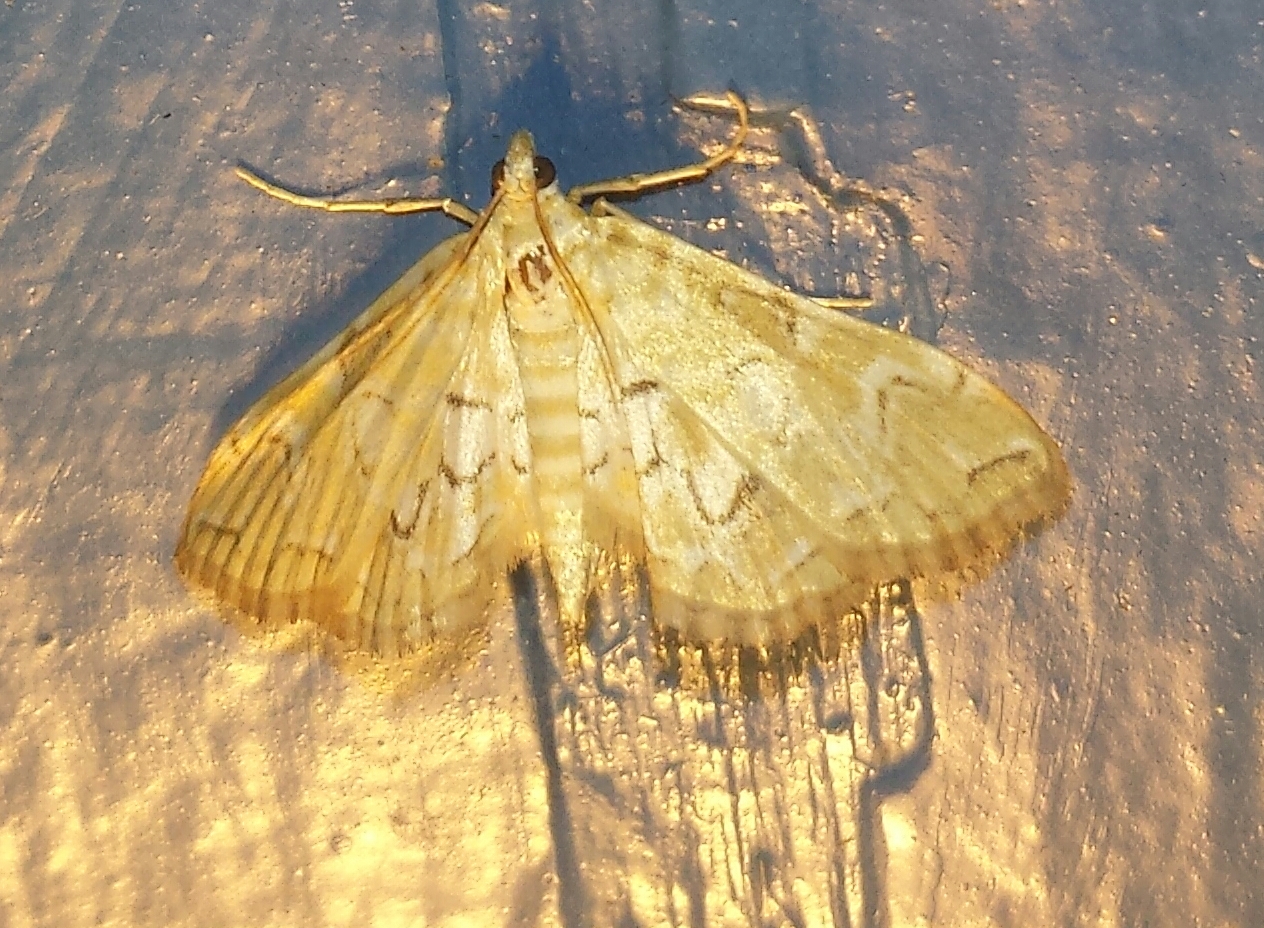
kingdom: Animalia
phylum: Arthropoda
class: Insecta
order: Lepidoptera
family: Crambidae
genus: Elophila
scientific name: Elophila icciusalis
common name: Pondside pyralid moth
